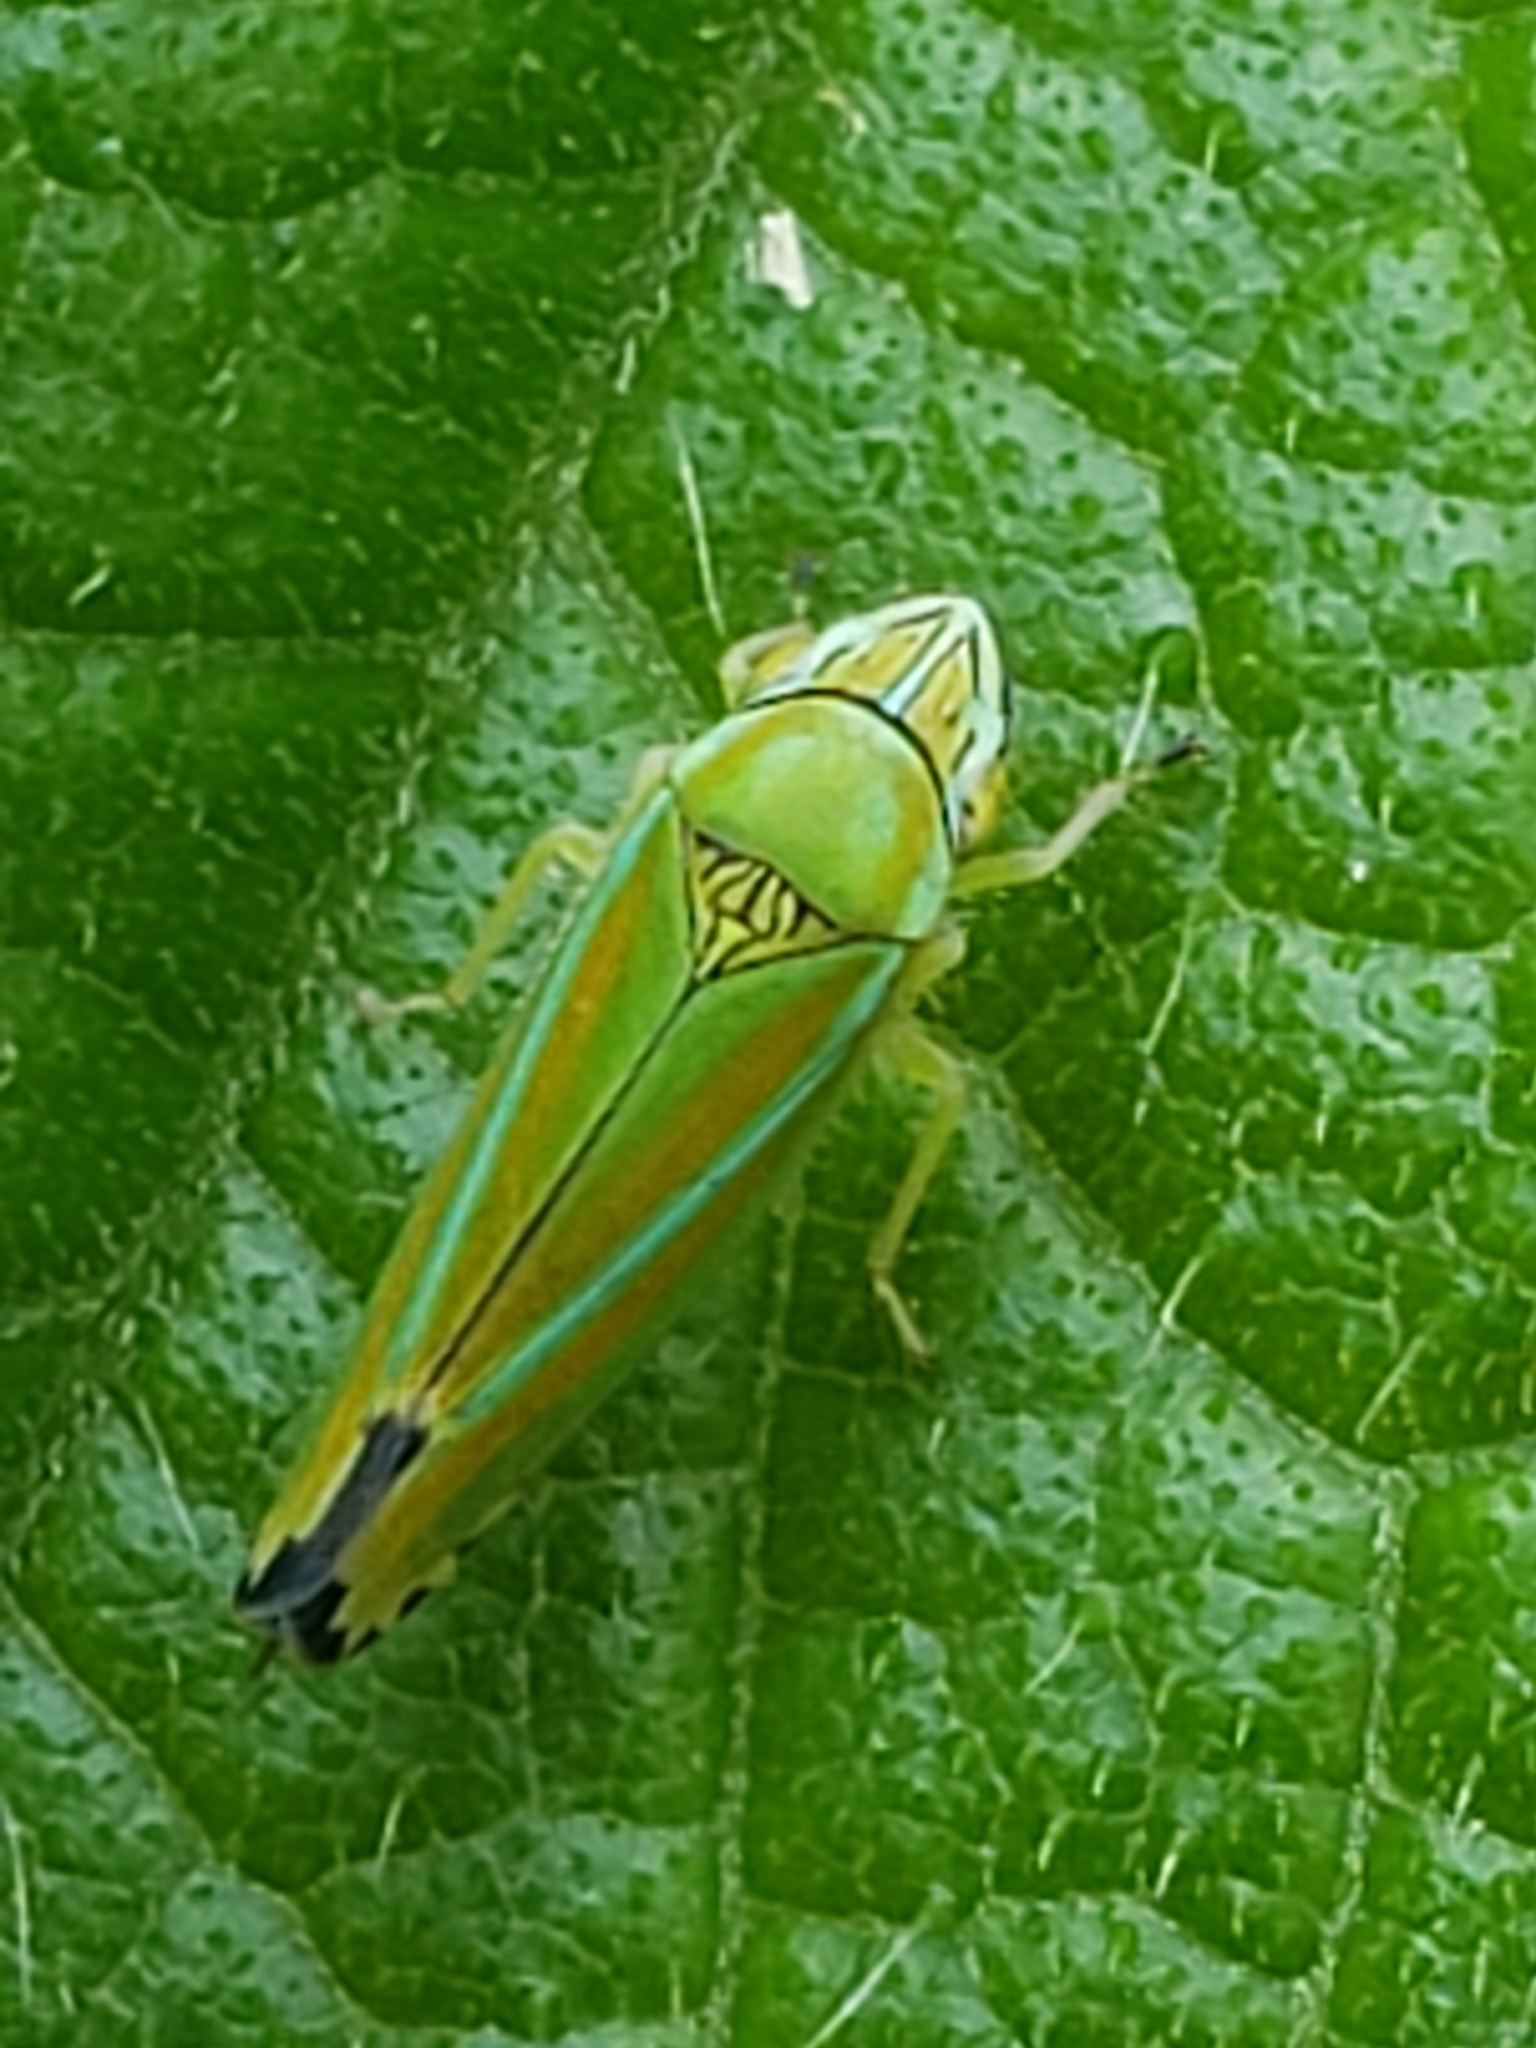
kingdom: Animalia
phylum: Arthropoda
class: Insecta
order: Hemiptera
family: Cicadellidae
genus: Graphocephala
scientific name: Graphocephala versuta
